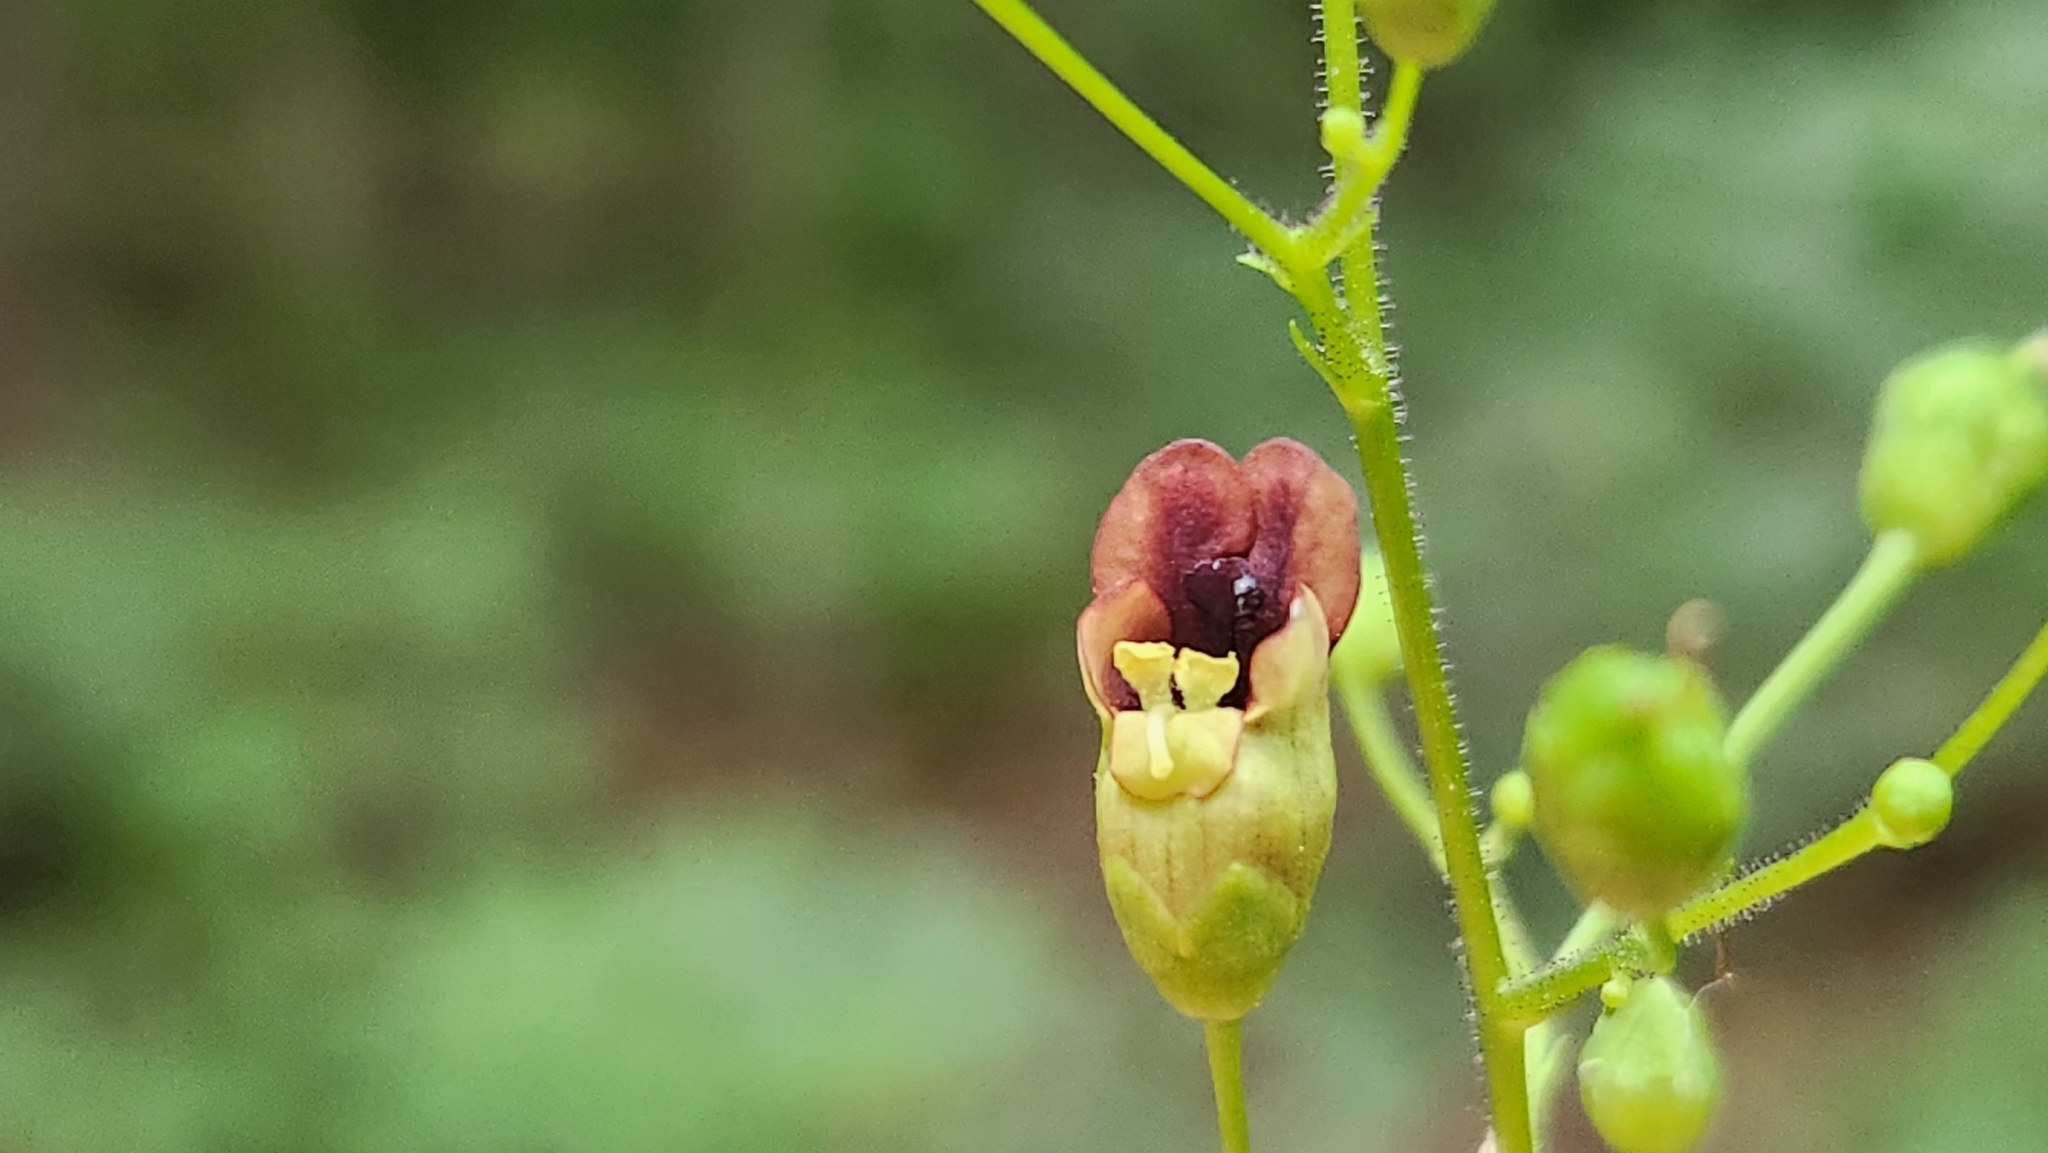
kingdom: Plantae
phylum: Tracheophyta
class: Magnoliopsida
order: Lamiales
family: Scrophulariaceae
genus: Scrophularia
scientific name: Scrophularia marilandica
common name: Eastern figwort
